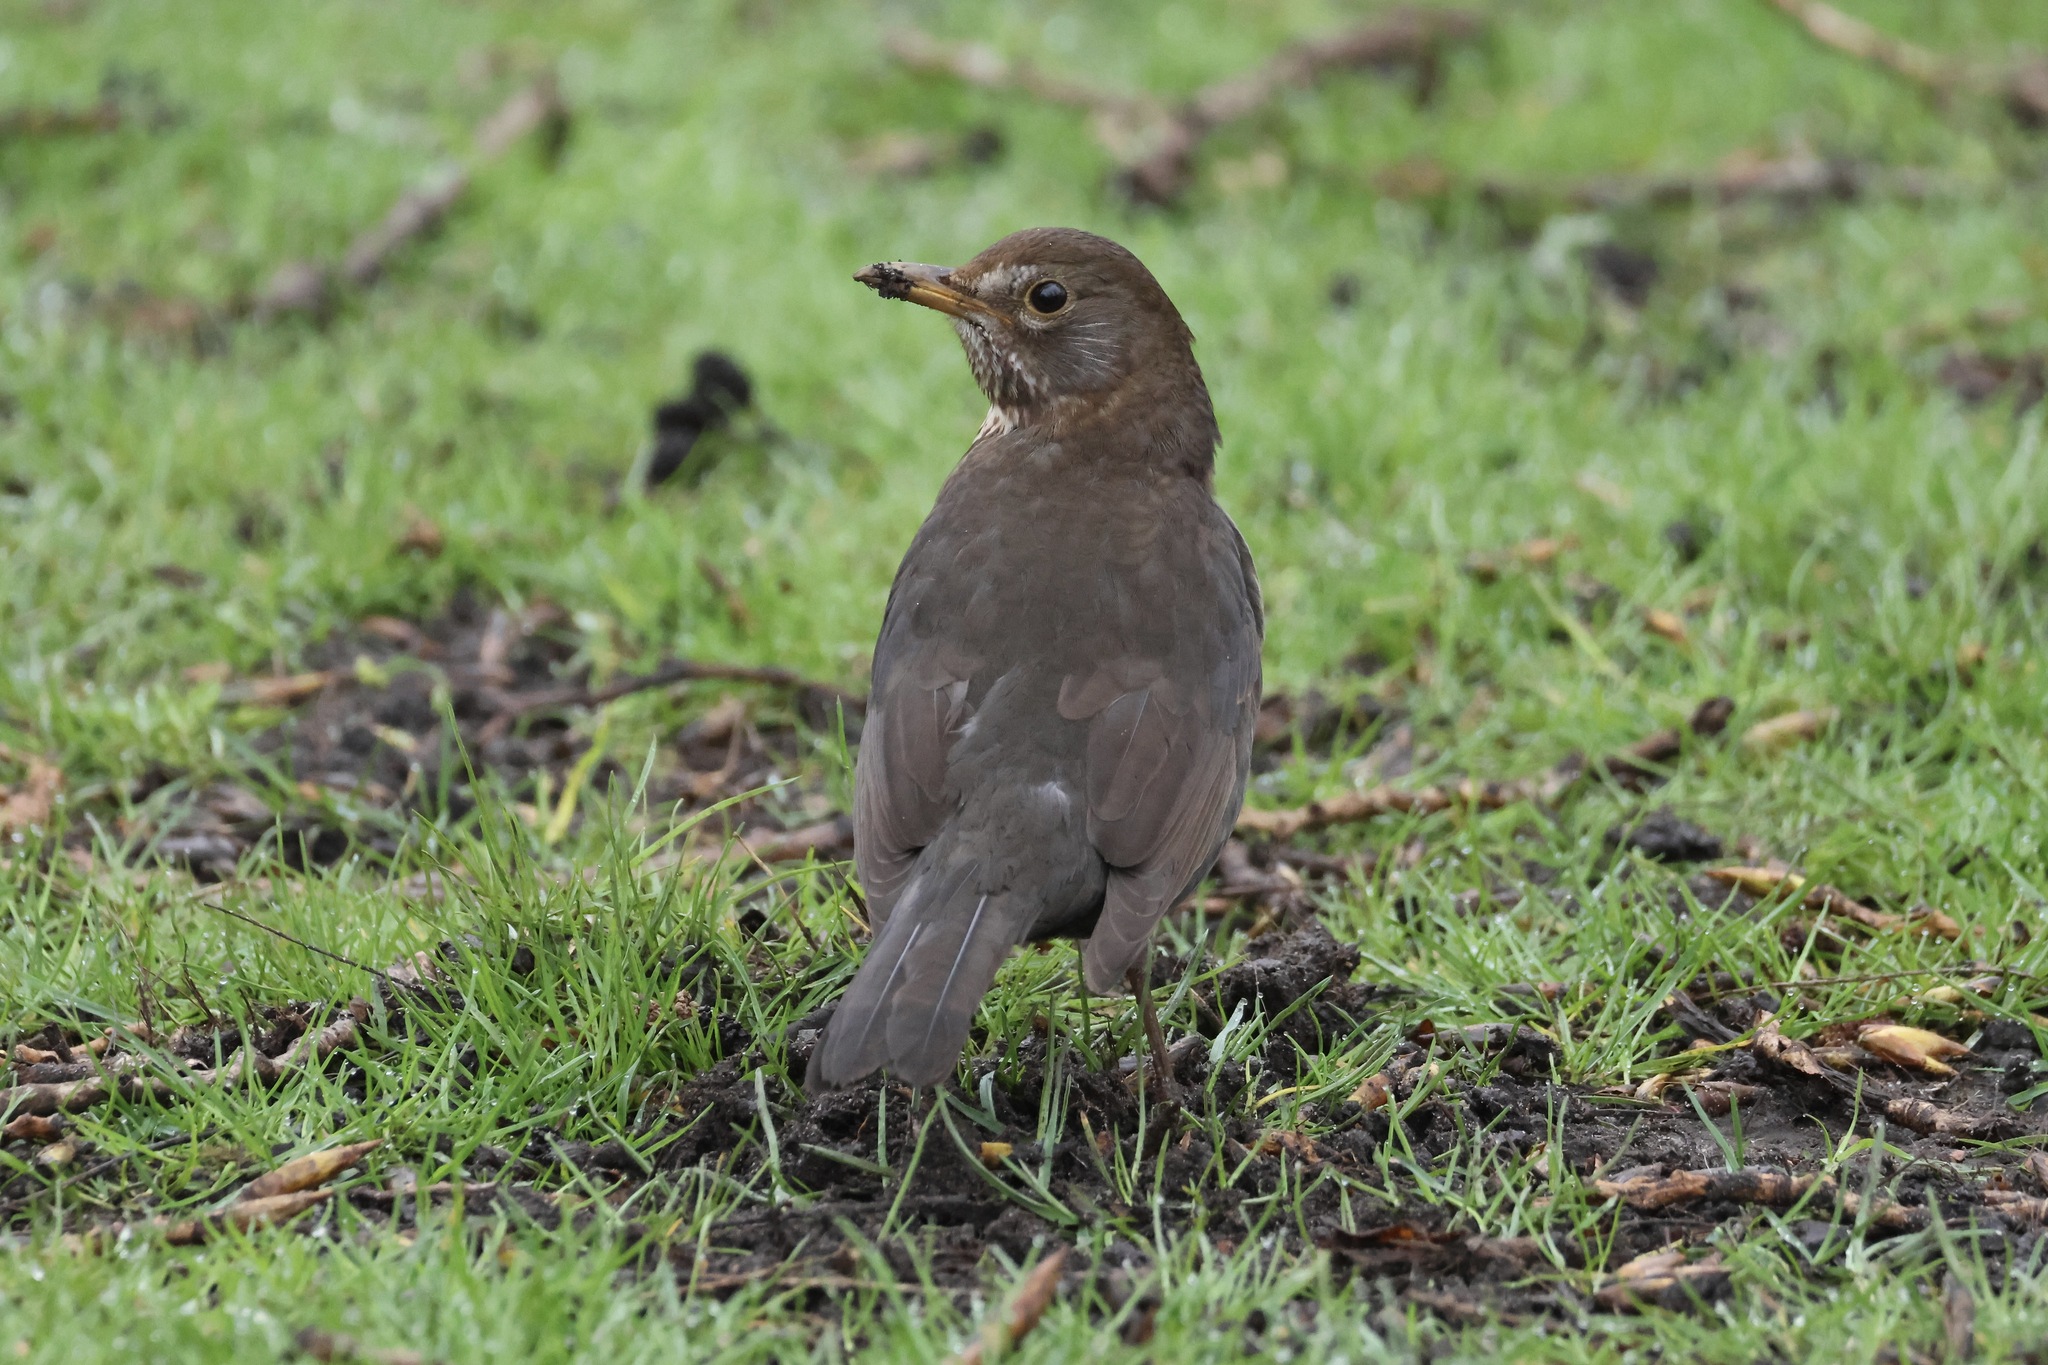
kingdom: Animalia
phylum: Chordata
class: Aves
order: Passeriformes
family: Turdidae
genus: Turdus
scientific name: Turdus merula
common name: Common blackbird
